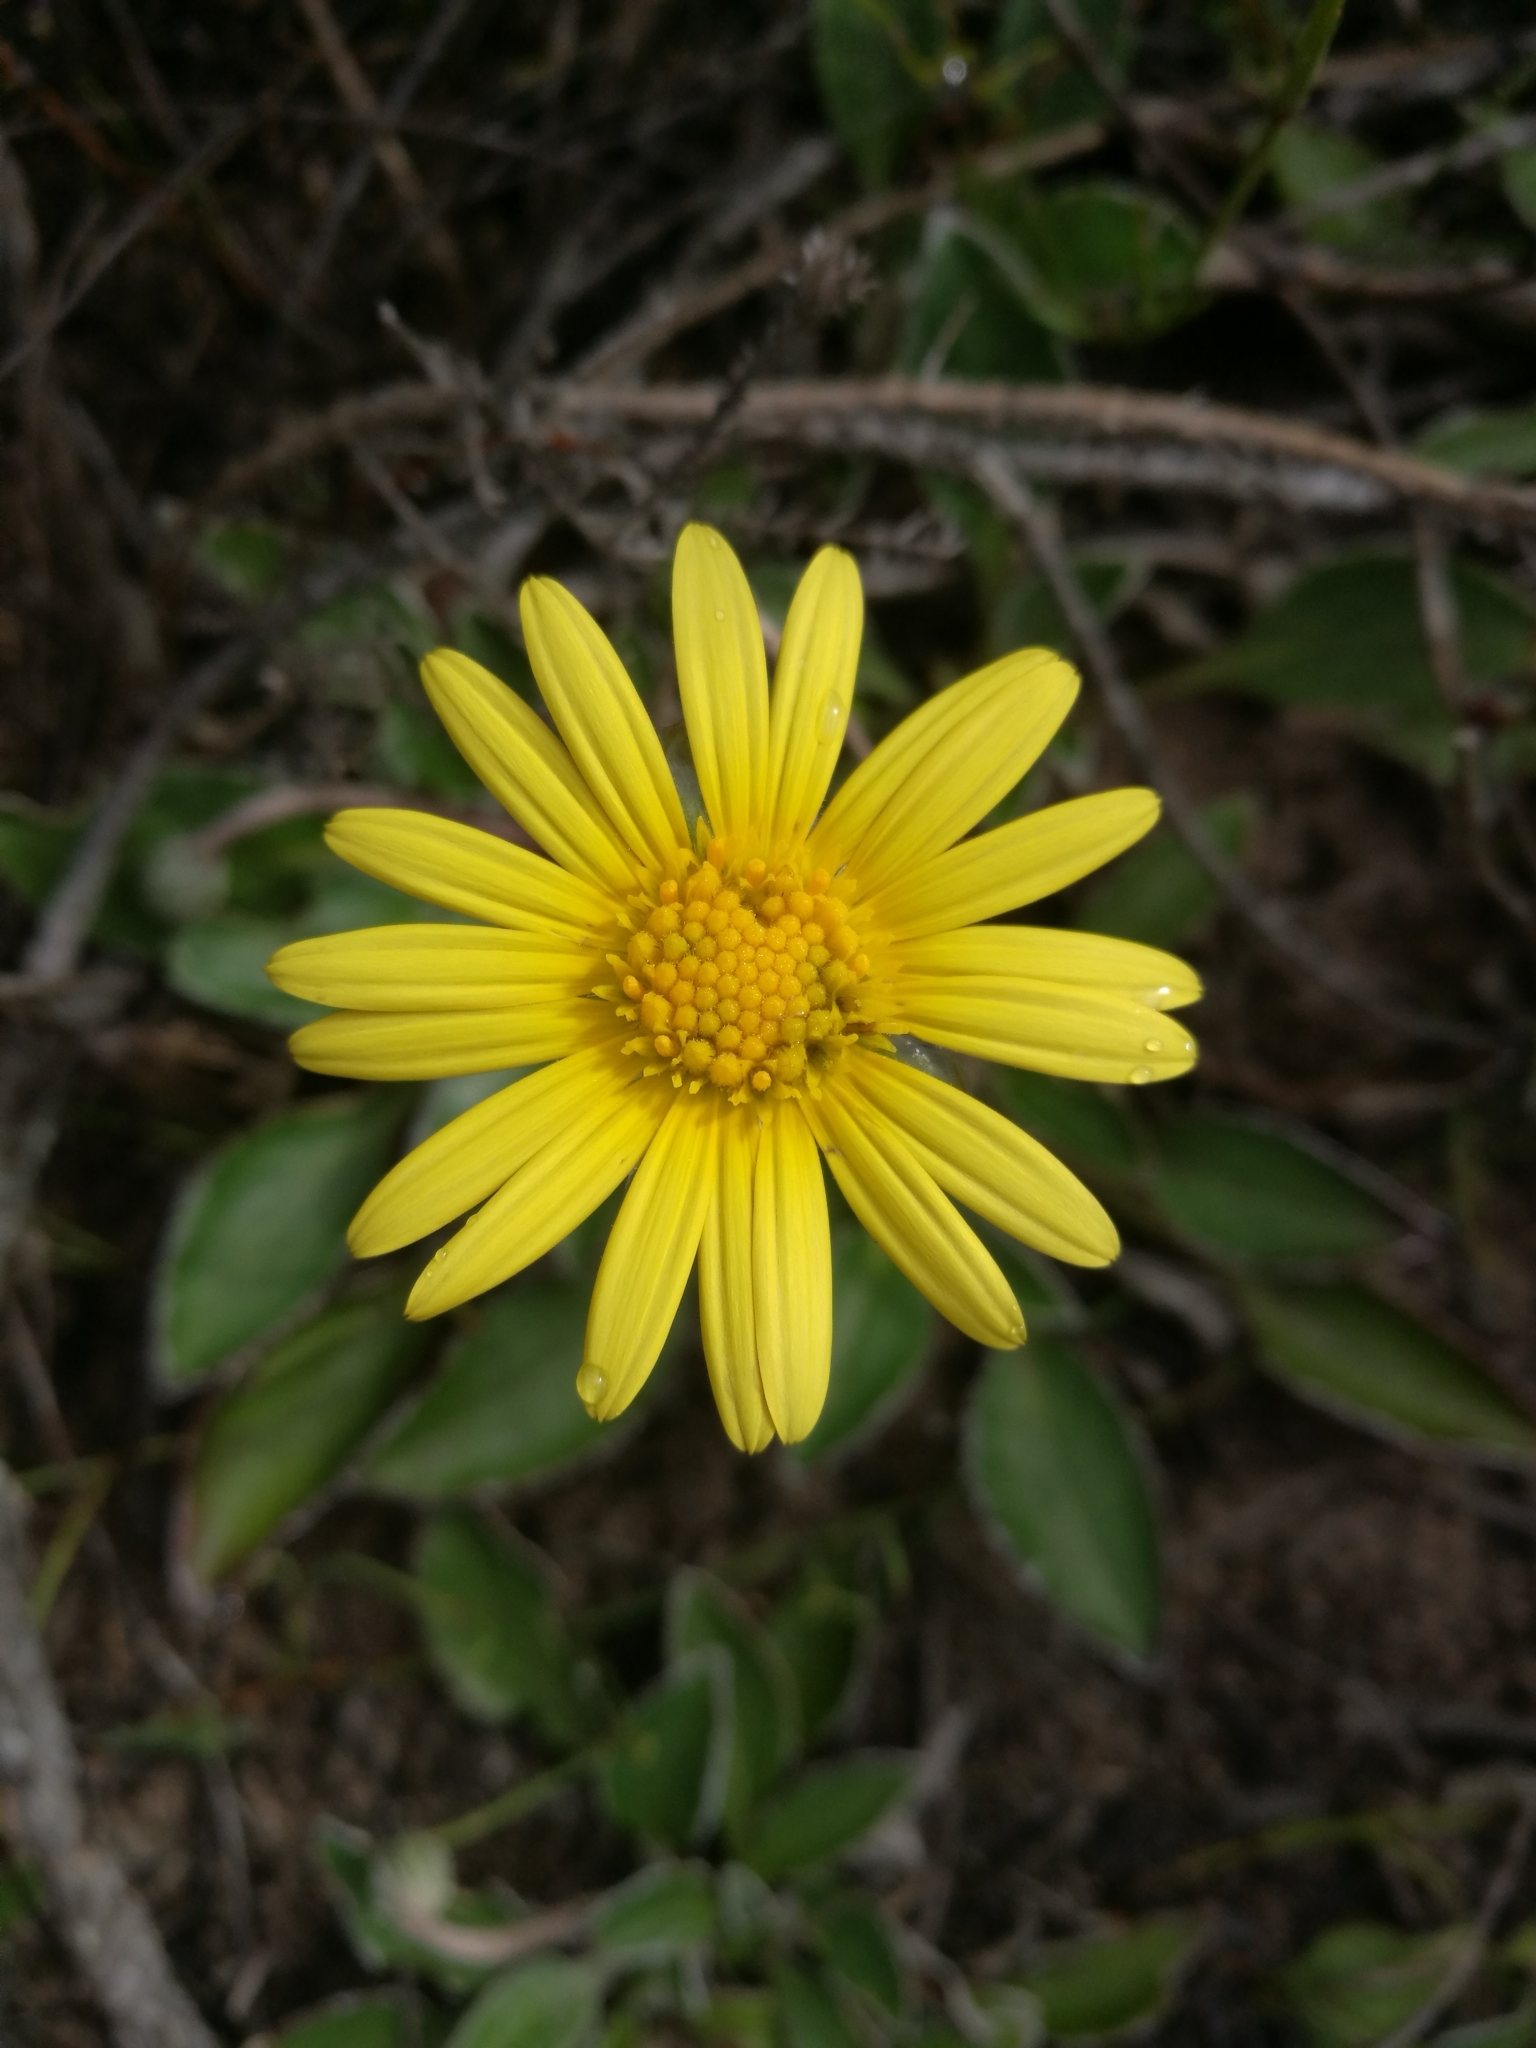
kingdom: Plantae
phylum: Tracheophyta
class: Magnoliopsida
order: Asterales
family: Asteraceae
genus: Haplocarpha
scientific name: Haplocarpha lyrata
